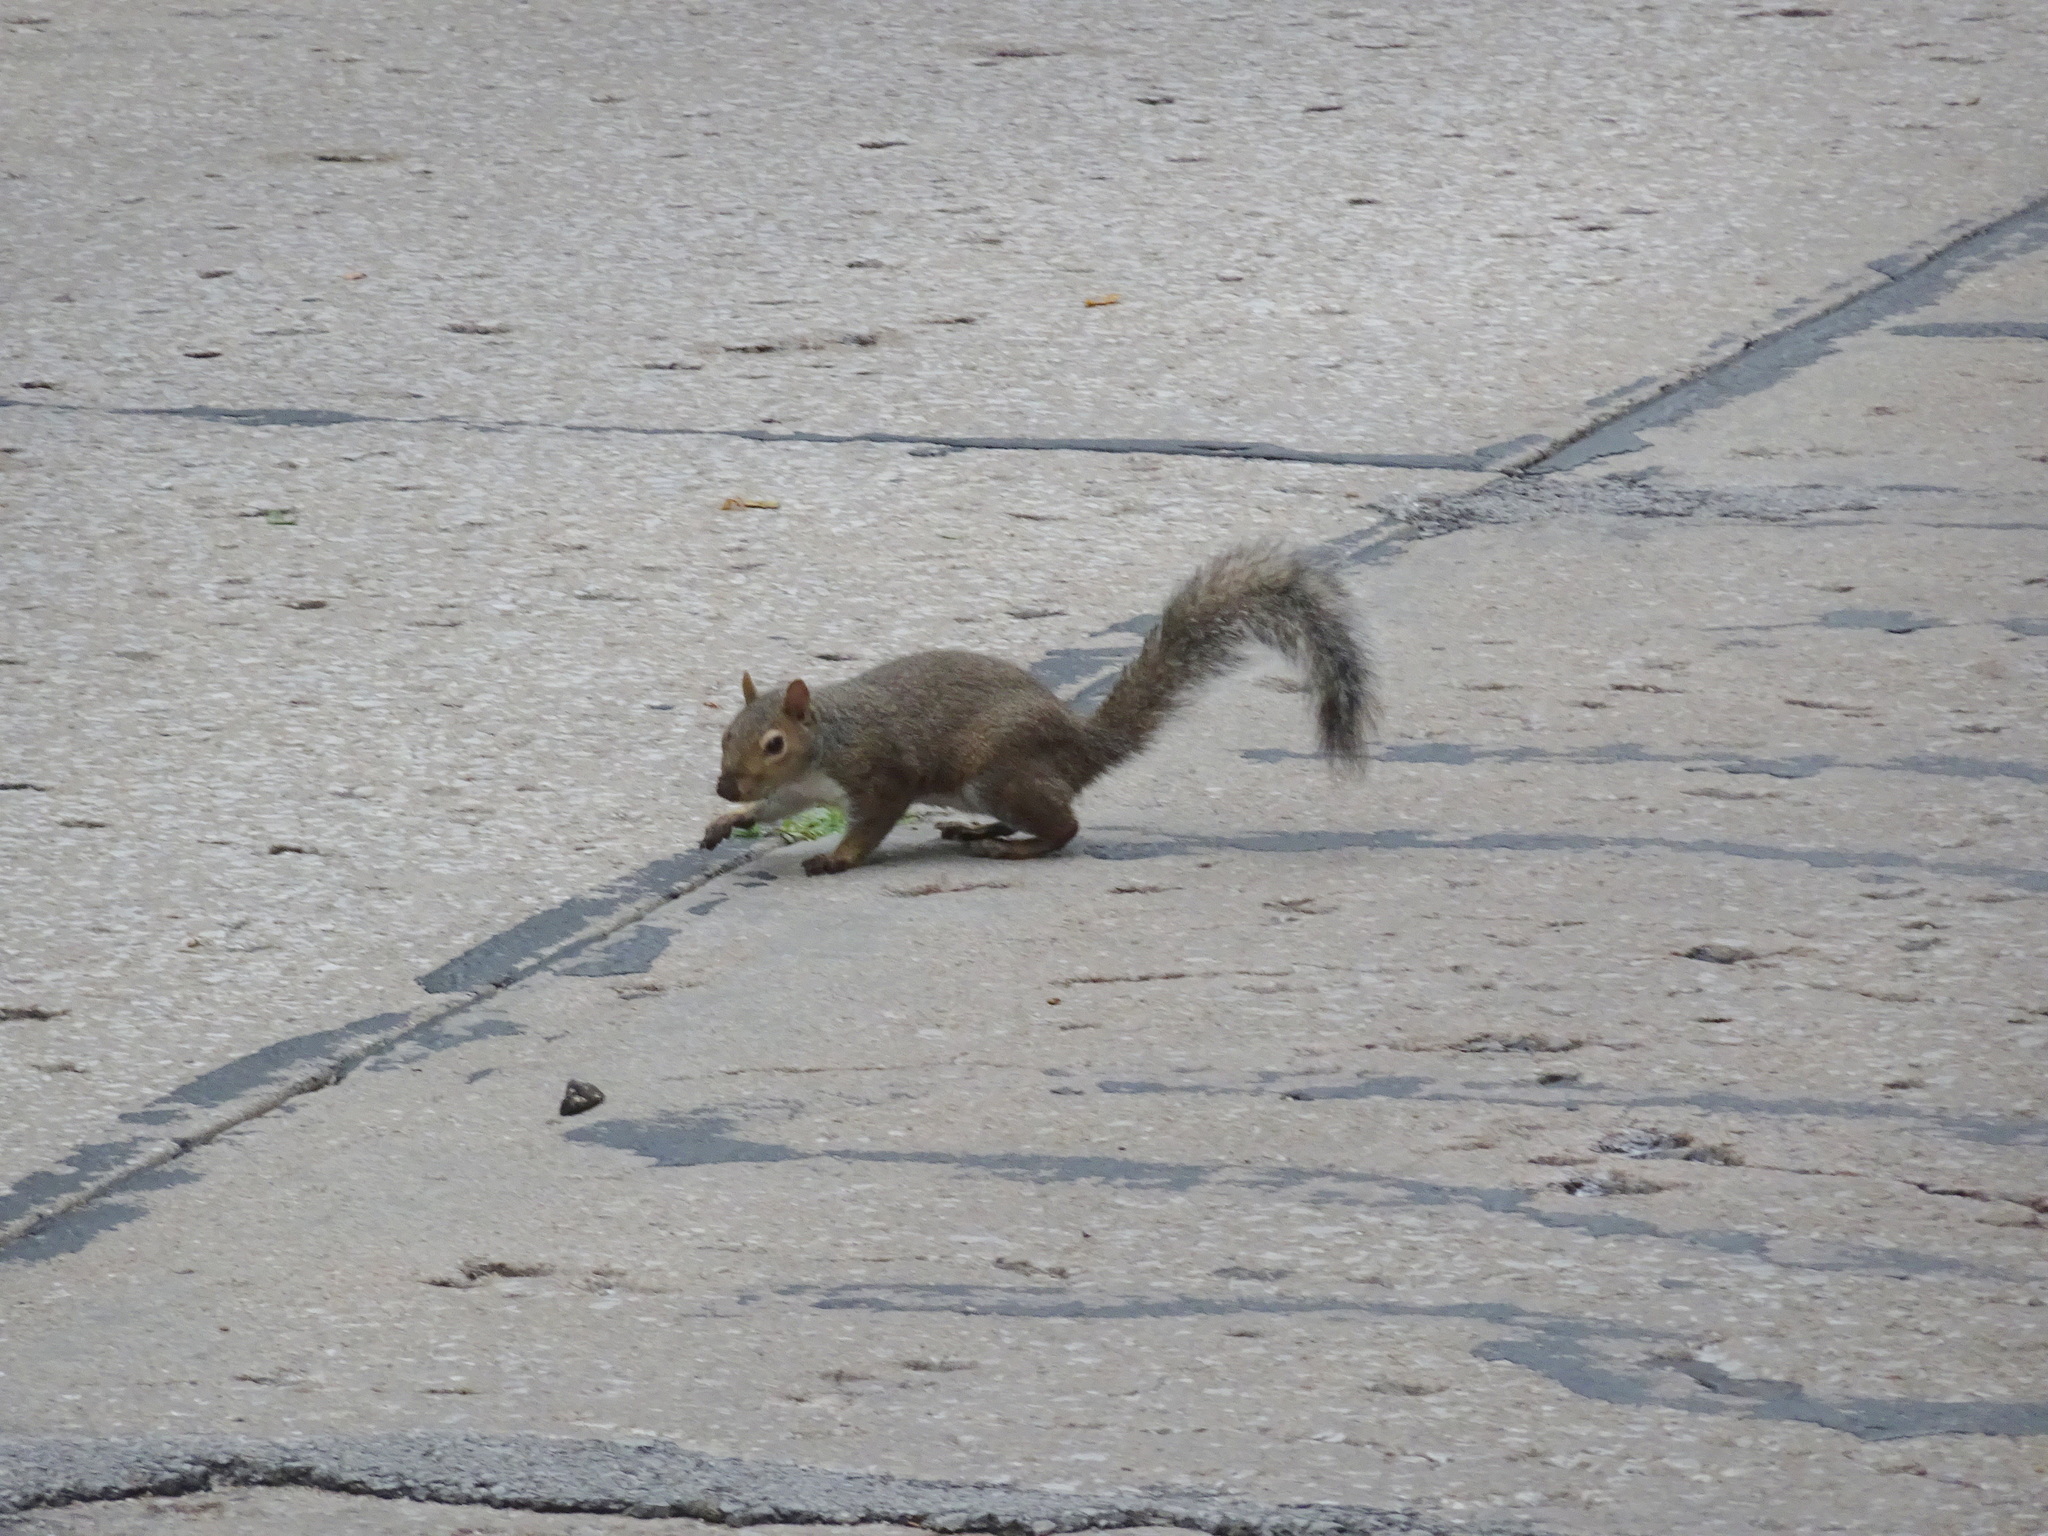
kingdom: Animalia
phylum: Chordata
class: Mammalia
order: Rodentia
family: Sciuridae
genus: Sciurus
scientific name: Sciurus carolinensis
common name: Eastern gray squirrel
